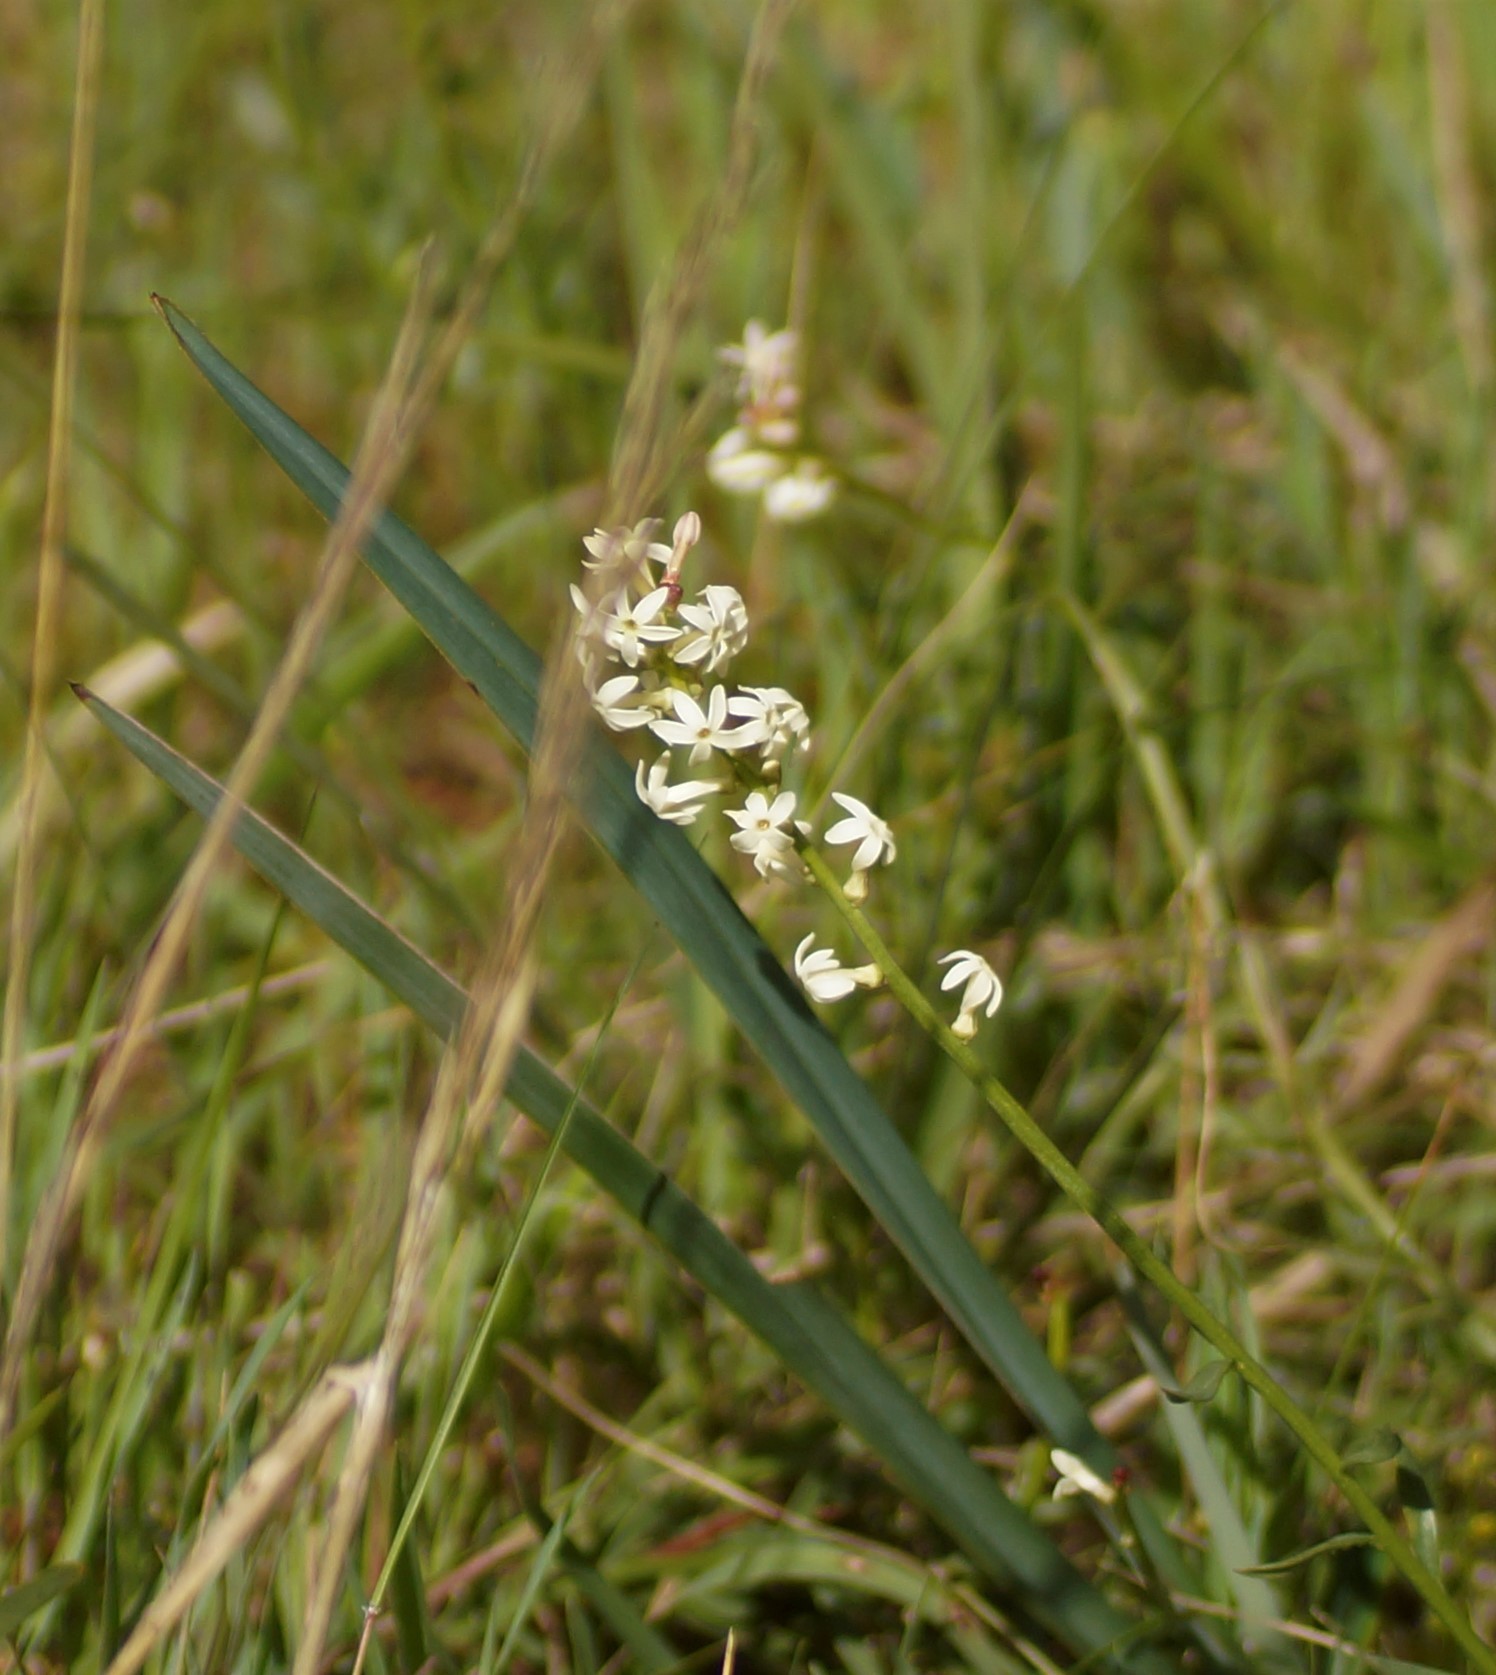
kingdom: Plantae
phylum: Tracheophyta
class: Magnoliopsida
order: Celastrales
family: Celastraceae
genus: Stackhousia
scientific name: Stackhousia monogyna
